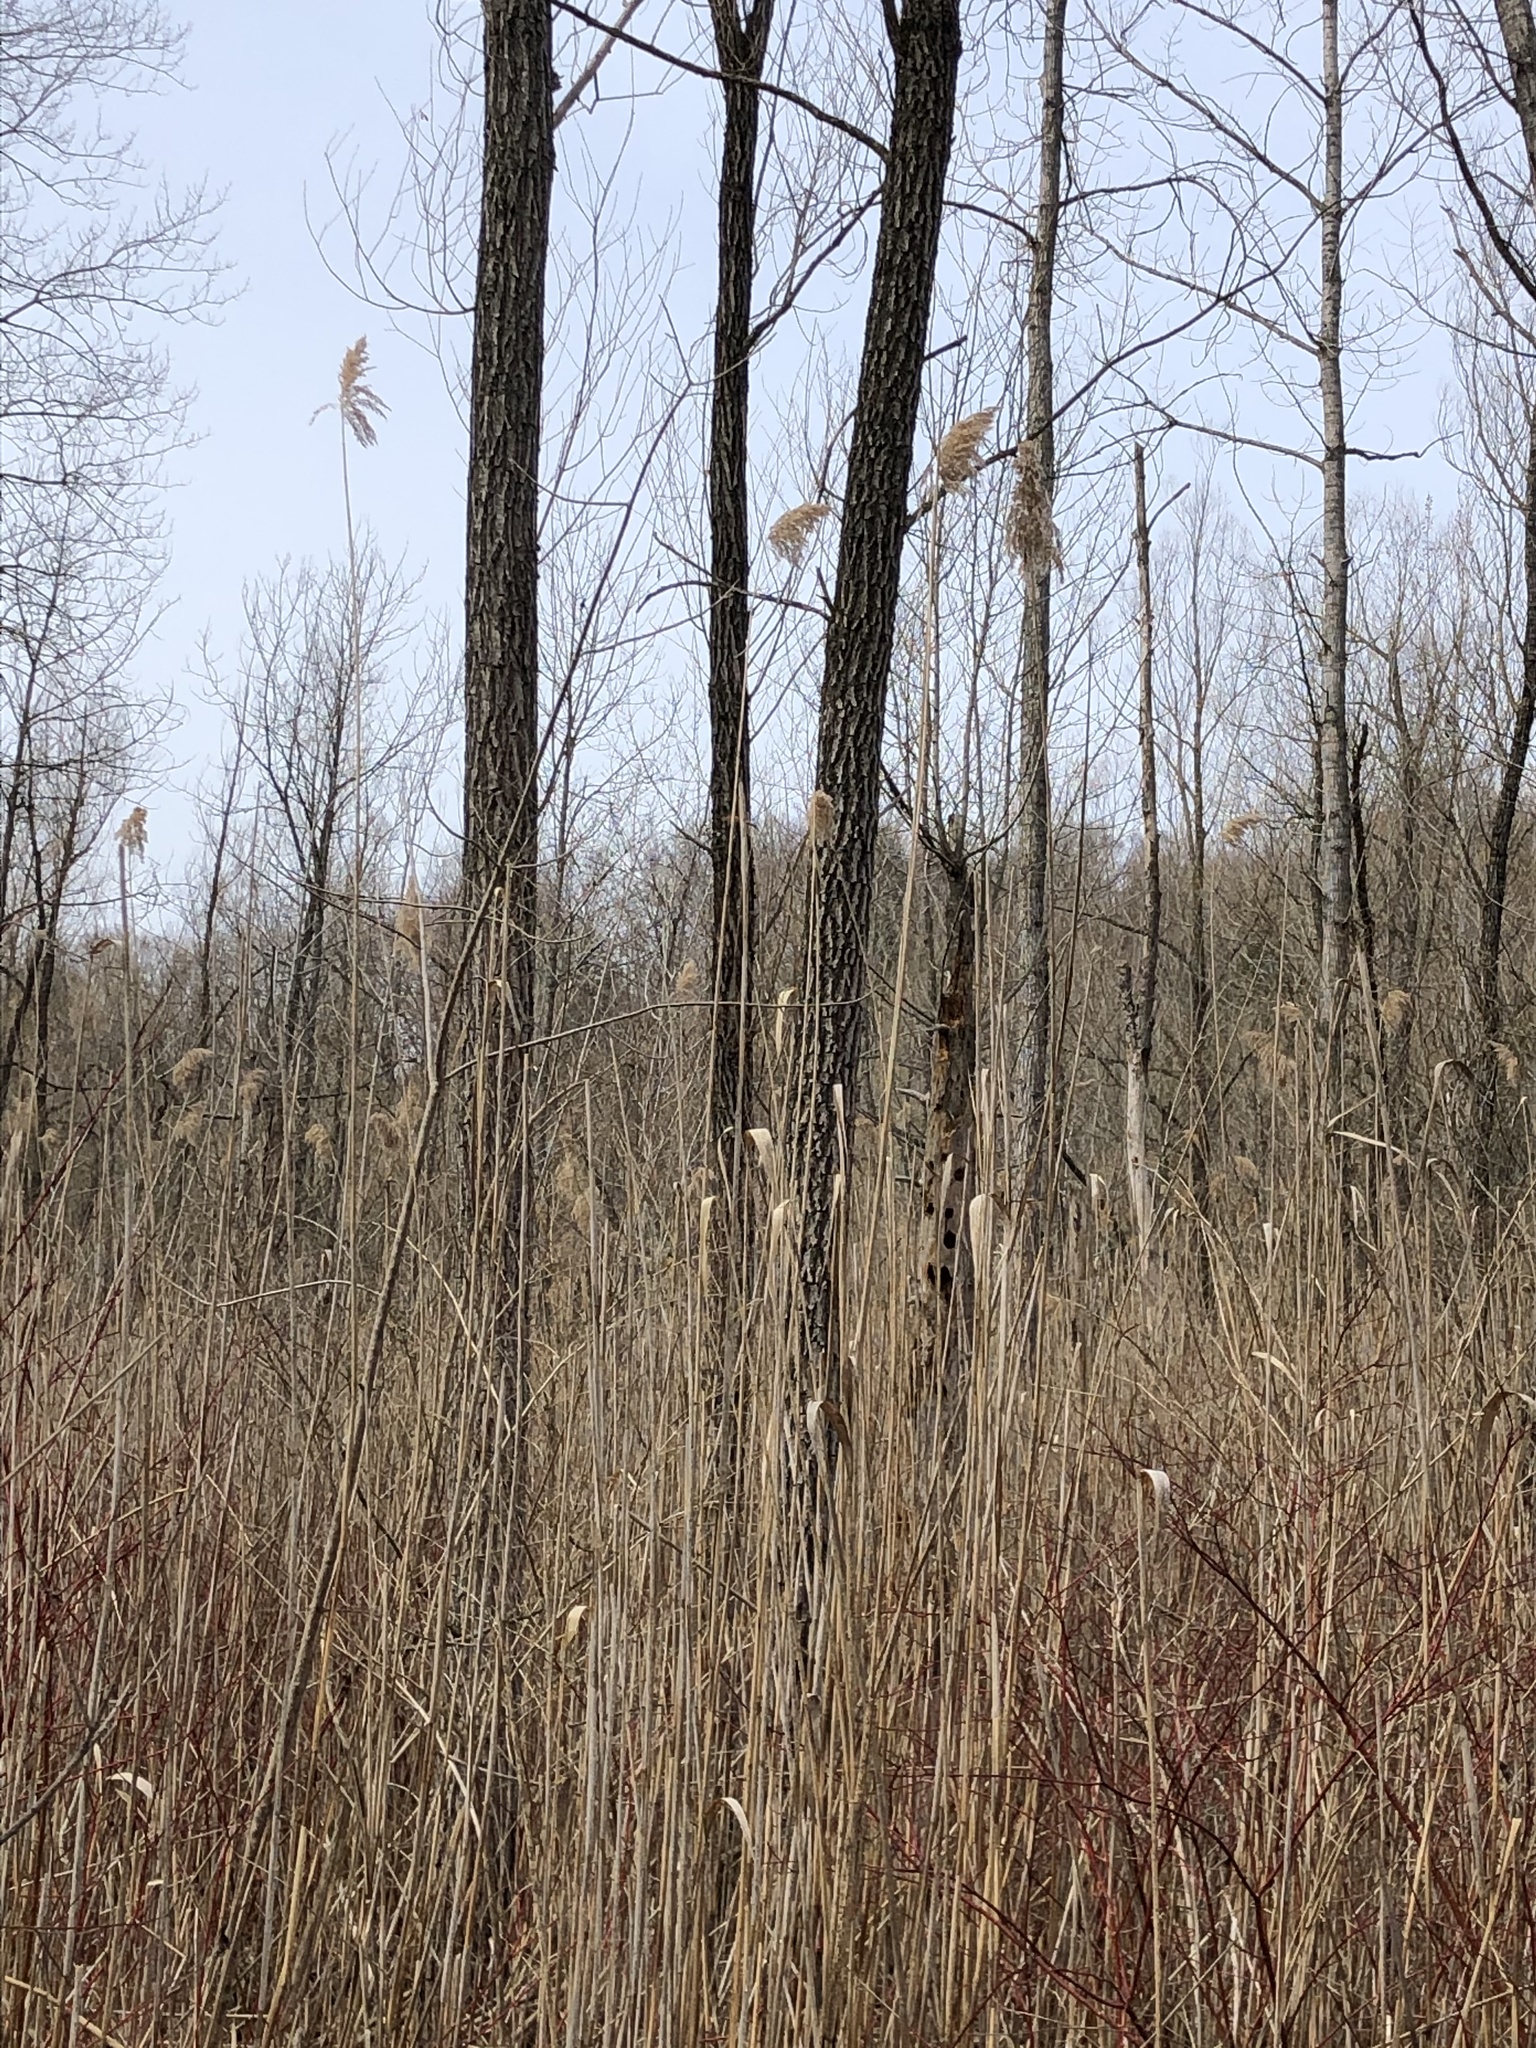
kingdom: Plantae
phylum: Tracheophyta
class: Liliopsida
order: Poales
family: Poaceae
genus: Phragmites
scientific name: Phragmites australis
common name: Common reed
